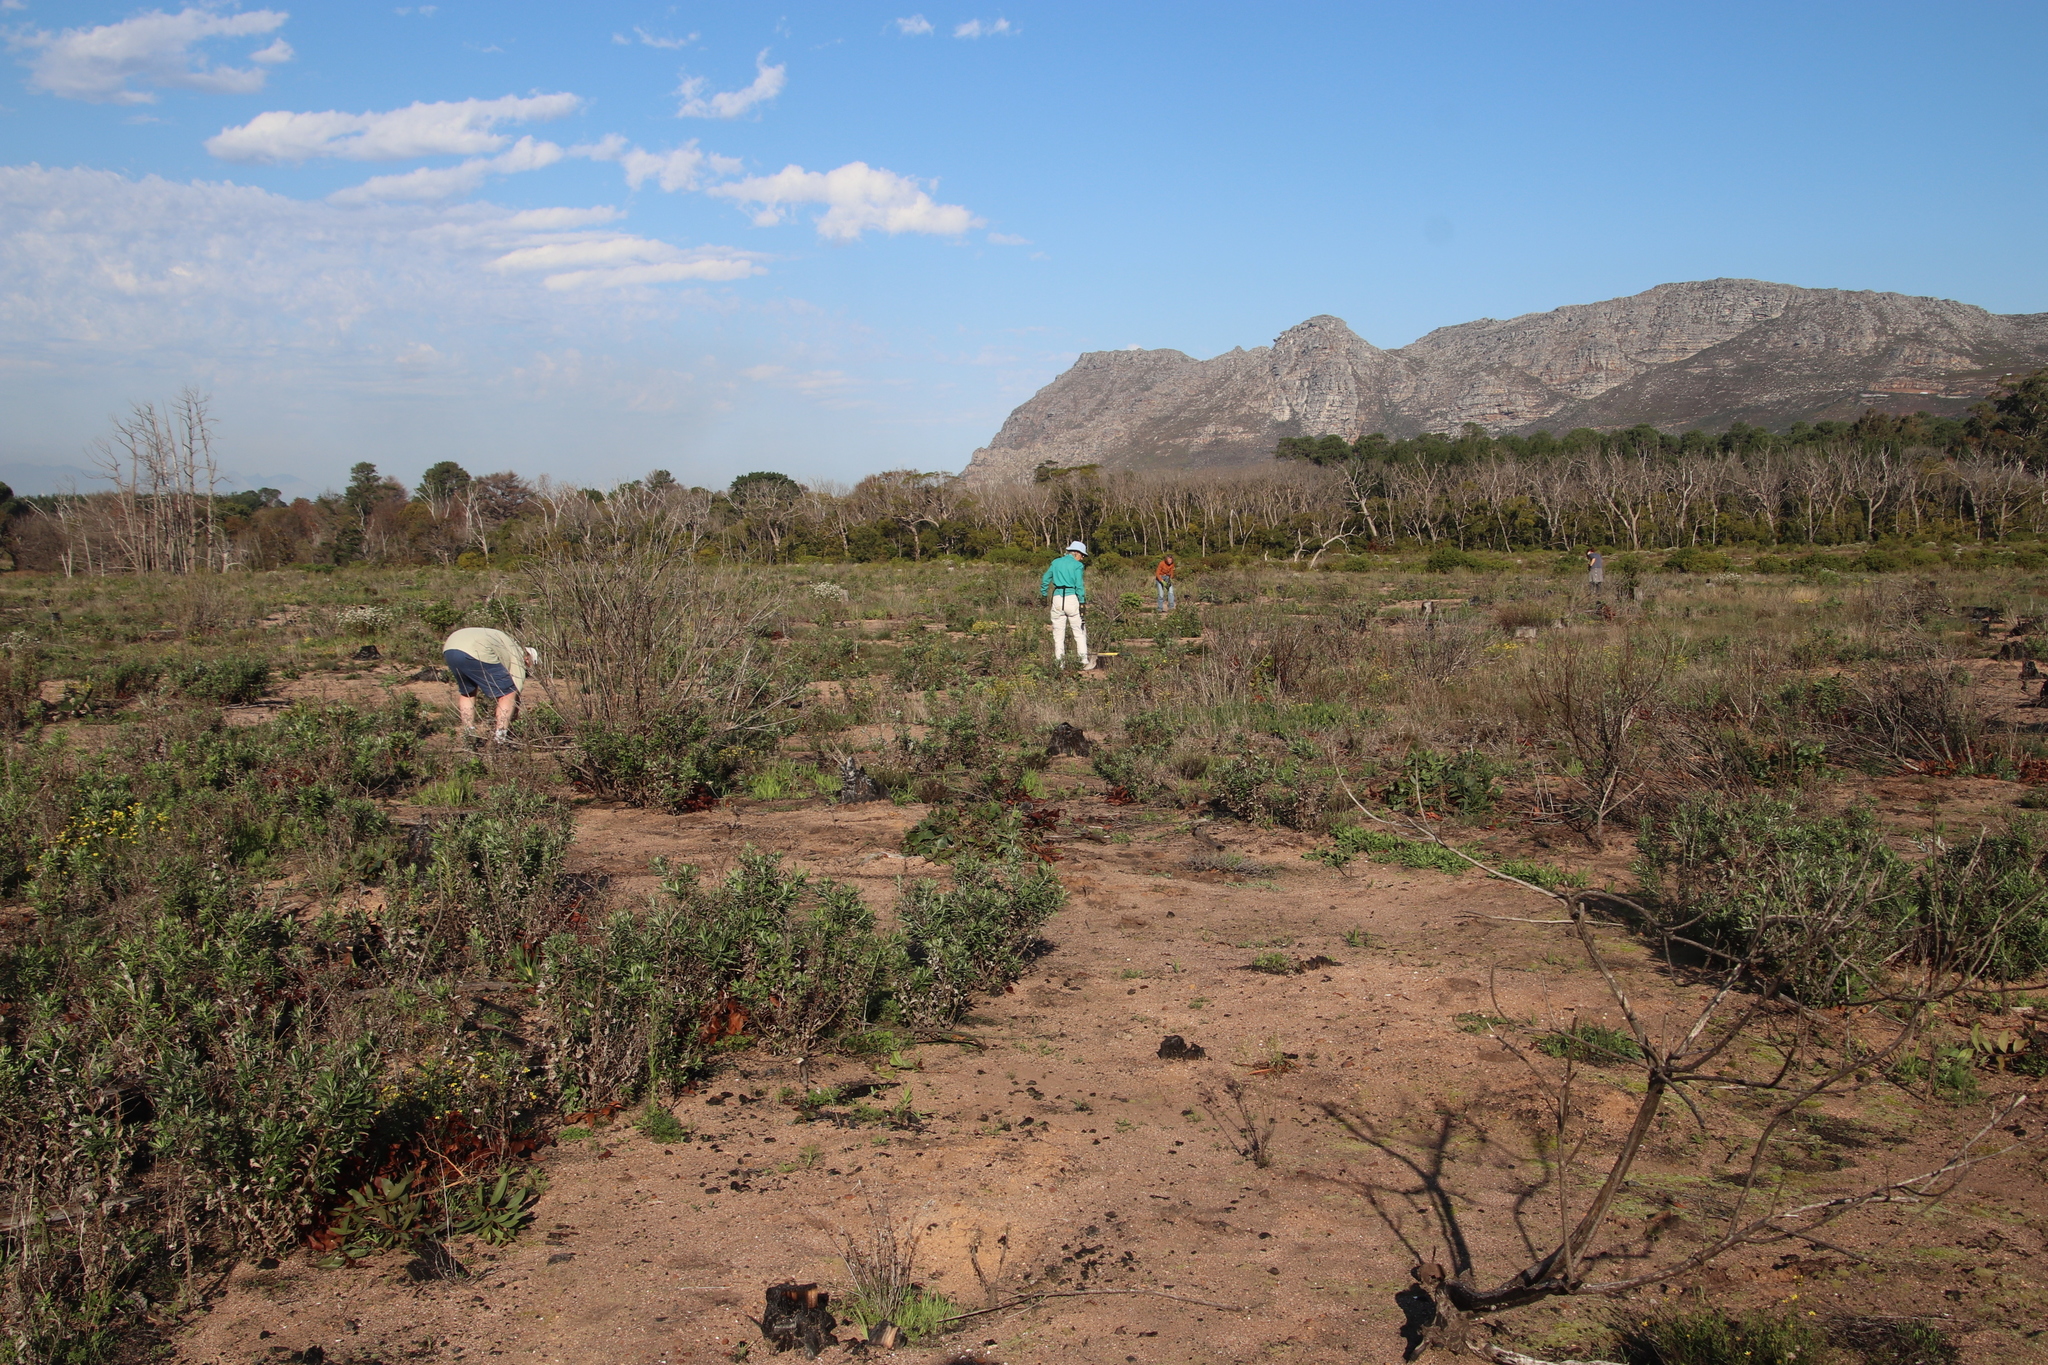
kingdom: Plantae
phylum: Tracheophyta
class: Magnoliopsida
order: Asterales
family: Asteraceae
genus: Senecio
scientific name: Senecio pterophorus
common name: Shoddy ragwort
